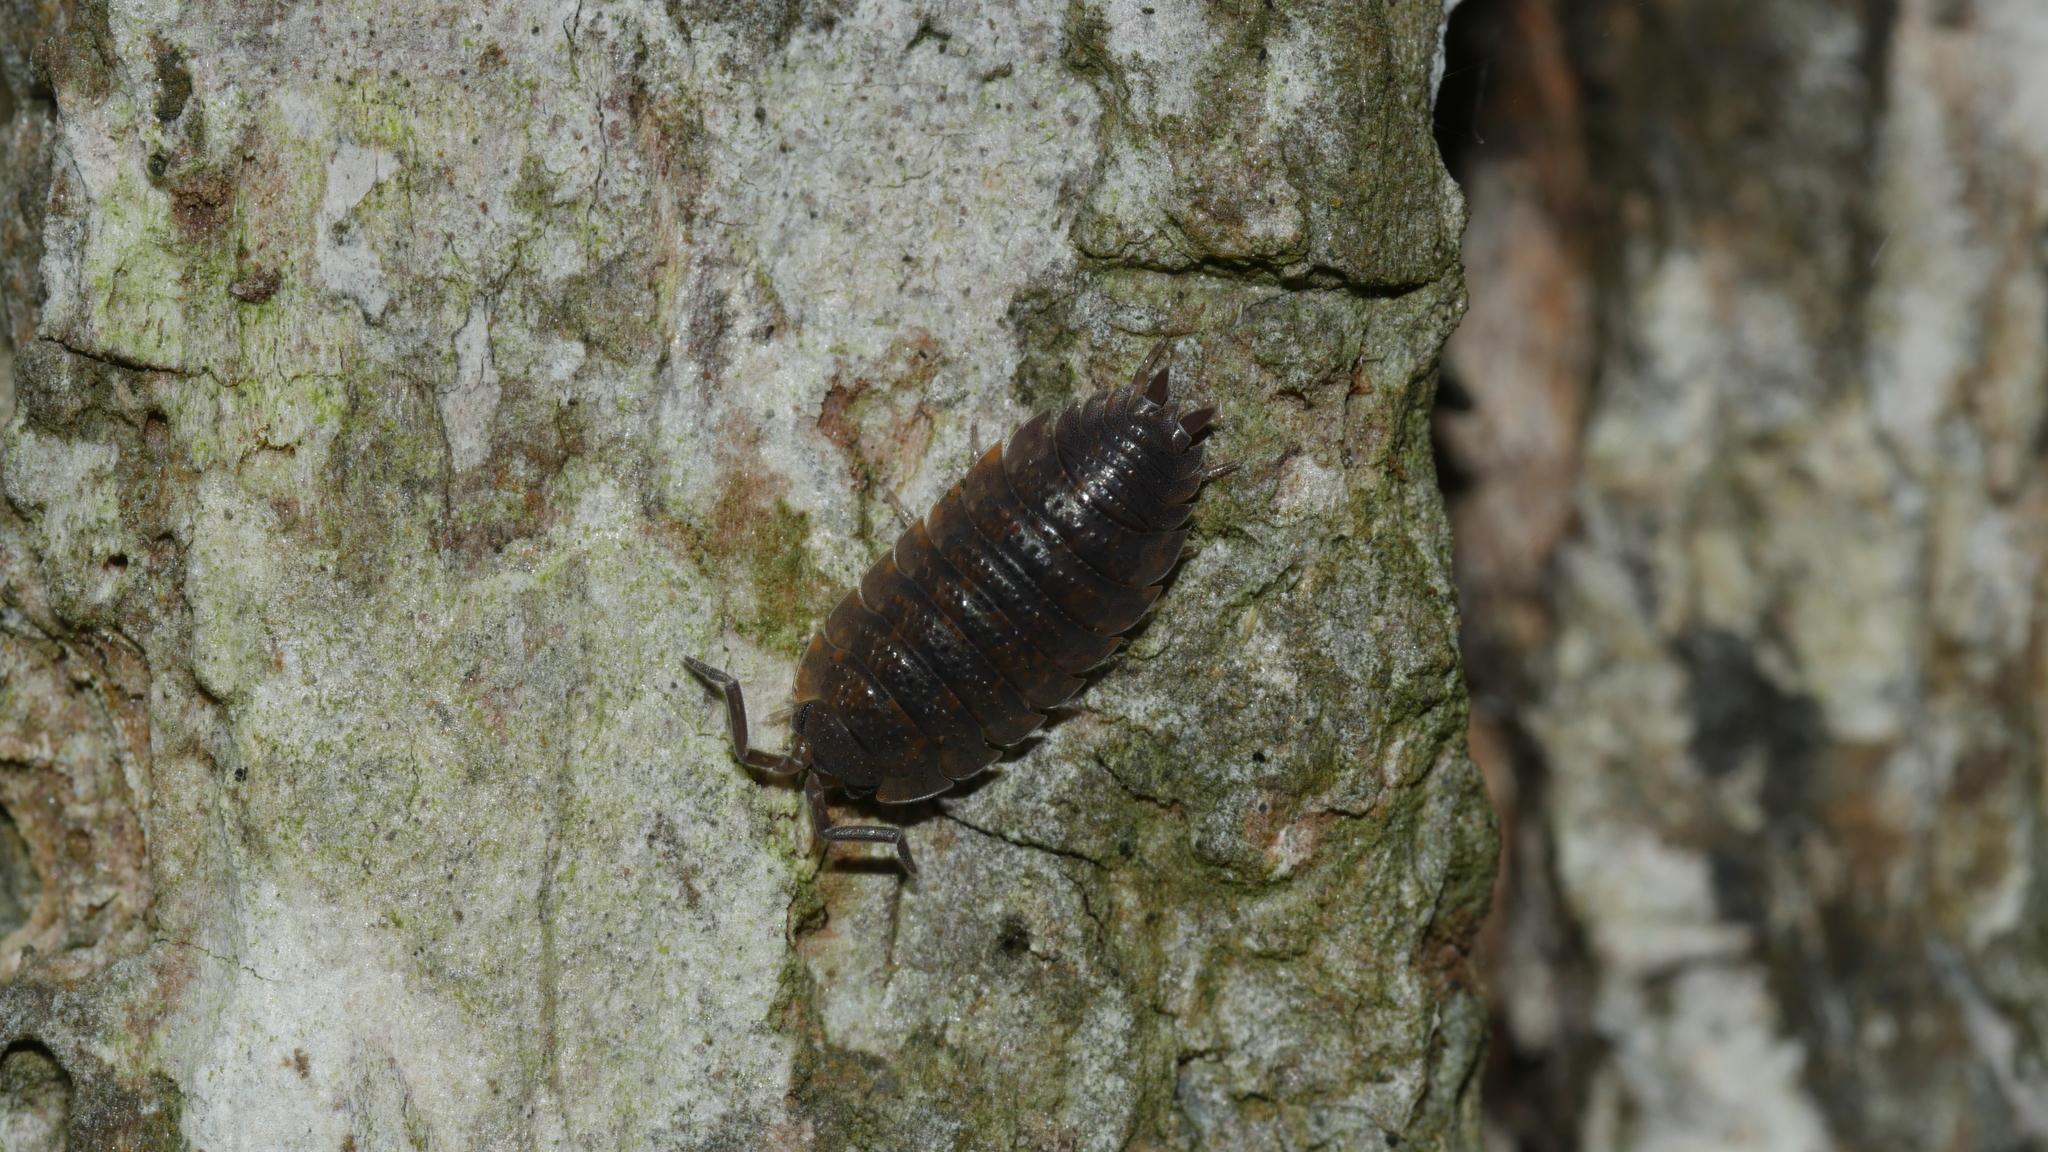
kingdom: Animalia
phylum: Arthropoda
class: Malacostraca
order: Isopoda
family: Porcellionidae
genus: Porcellio
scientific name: Porcellio scaber
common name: Common rough woodlouse
